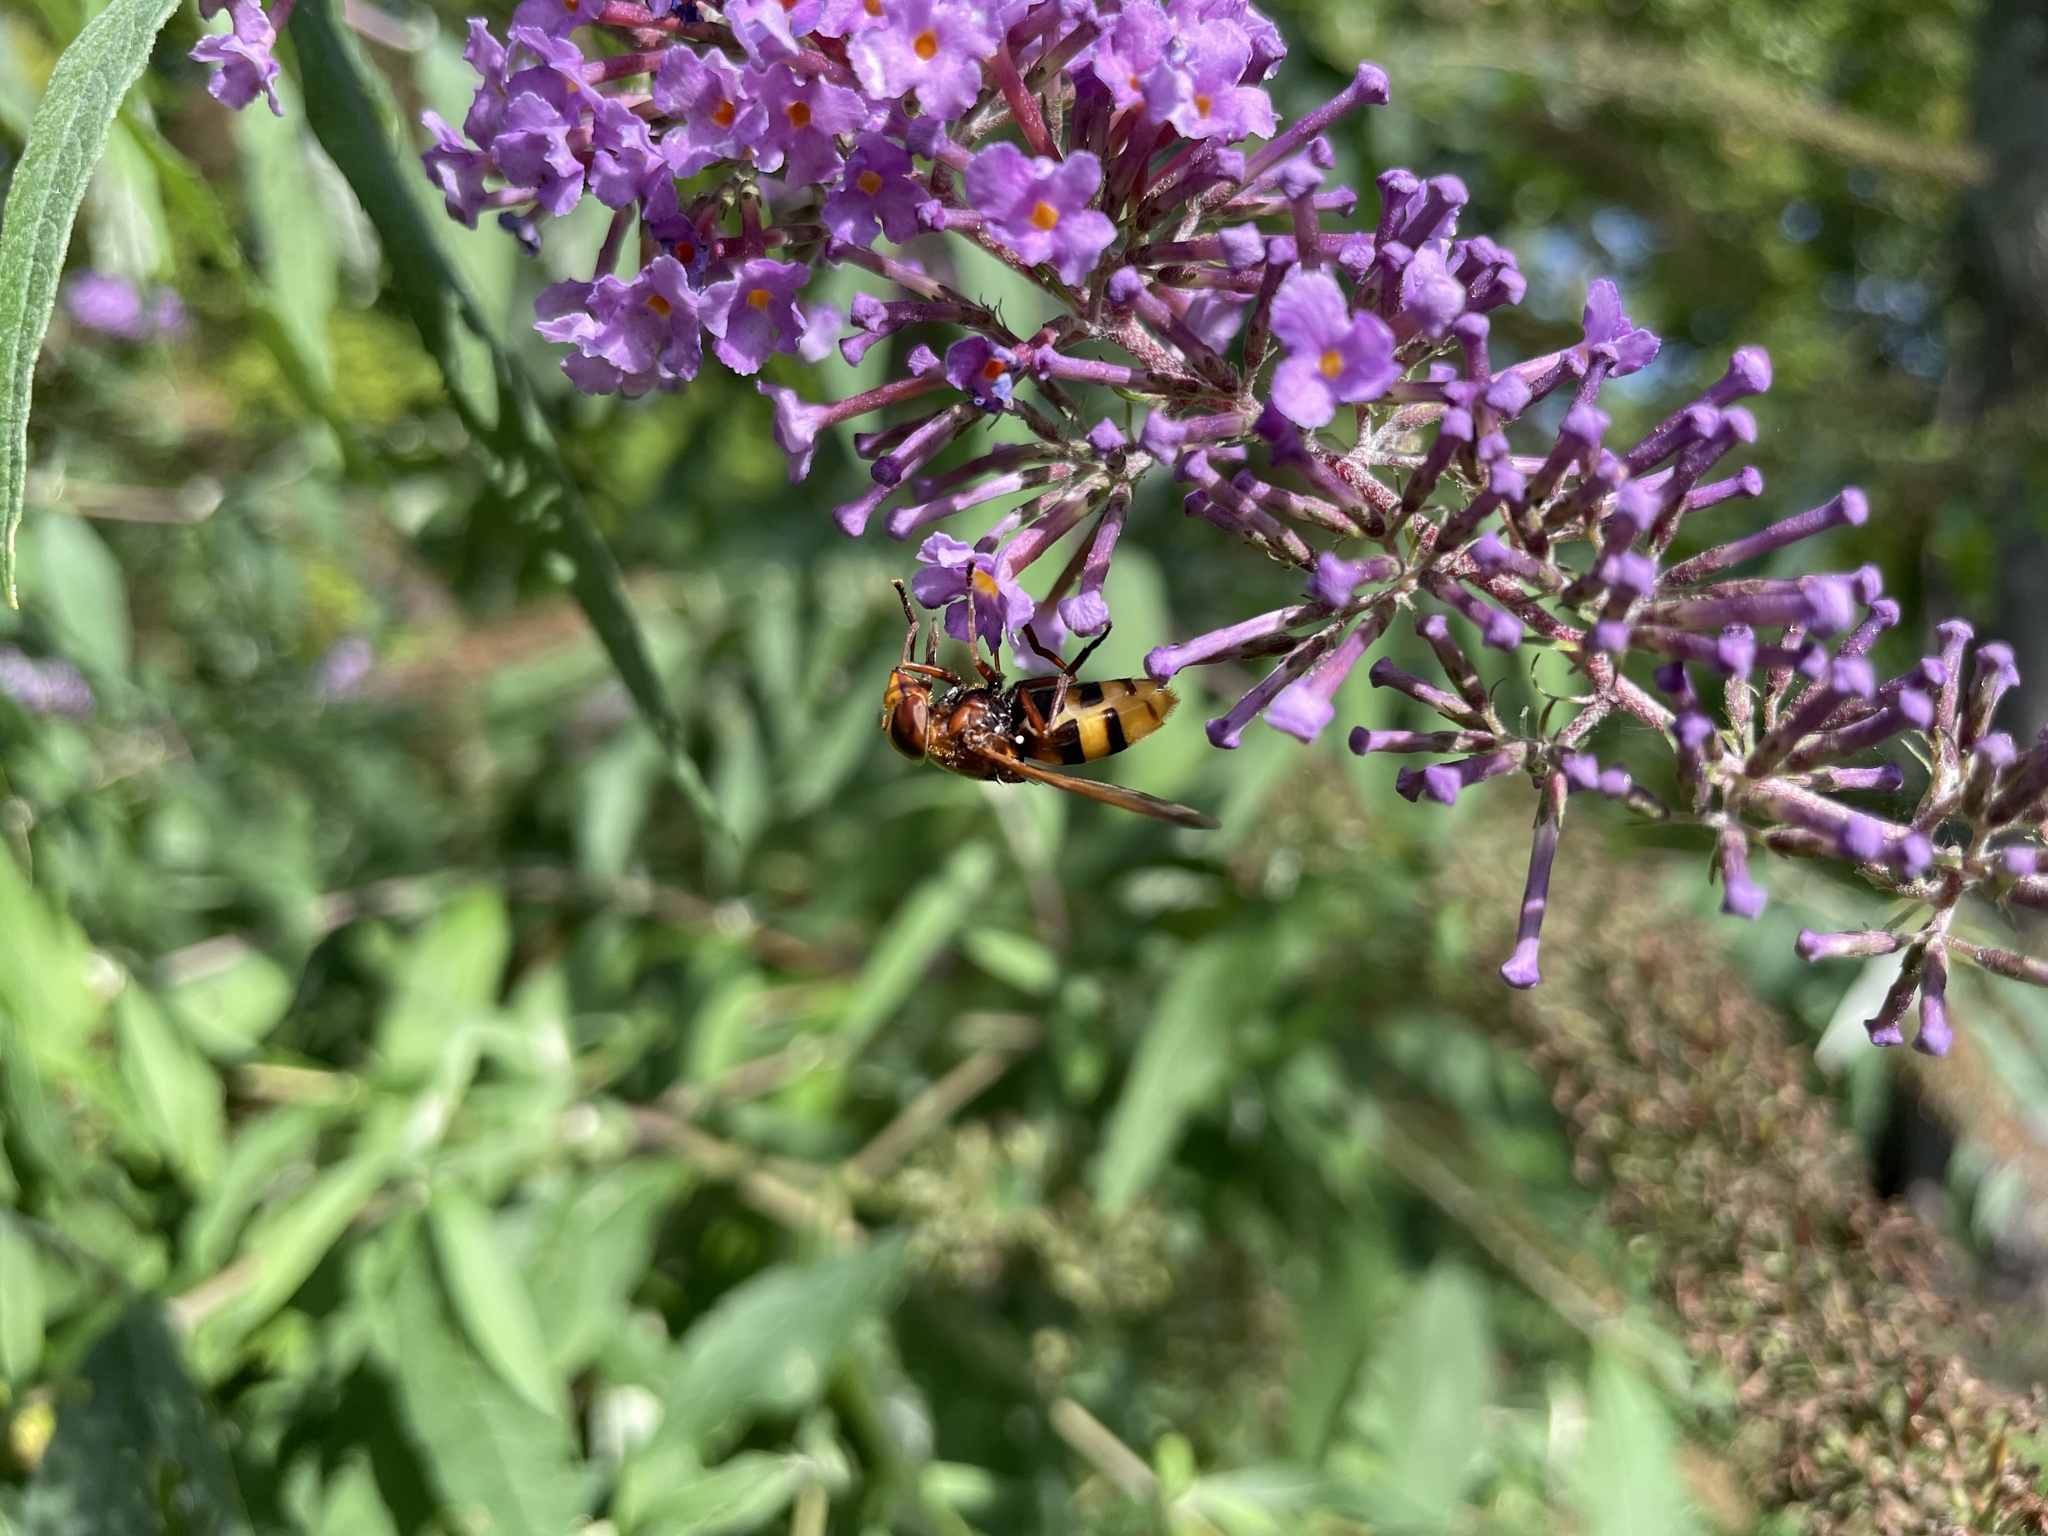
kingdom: Animalia
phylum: Arthropoda
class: Insecta
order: Diptera
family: Syrphidae
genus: Volucella
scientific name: Volucella zonaria
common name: Hornet hoverfly
